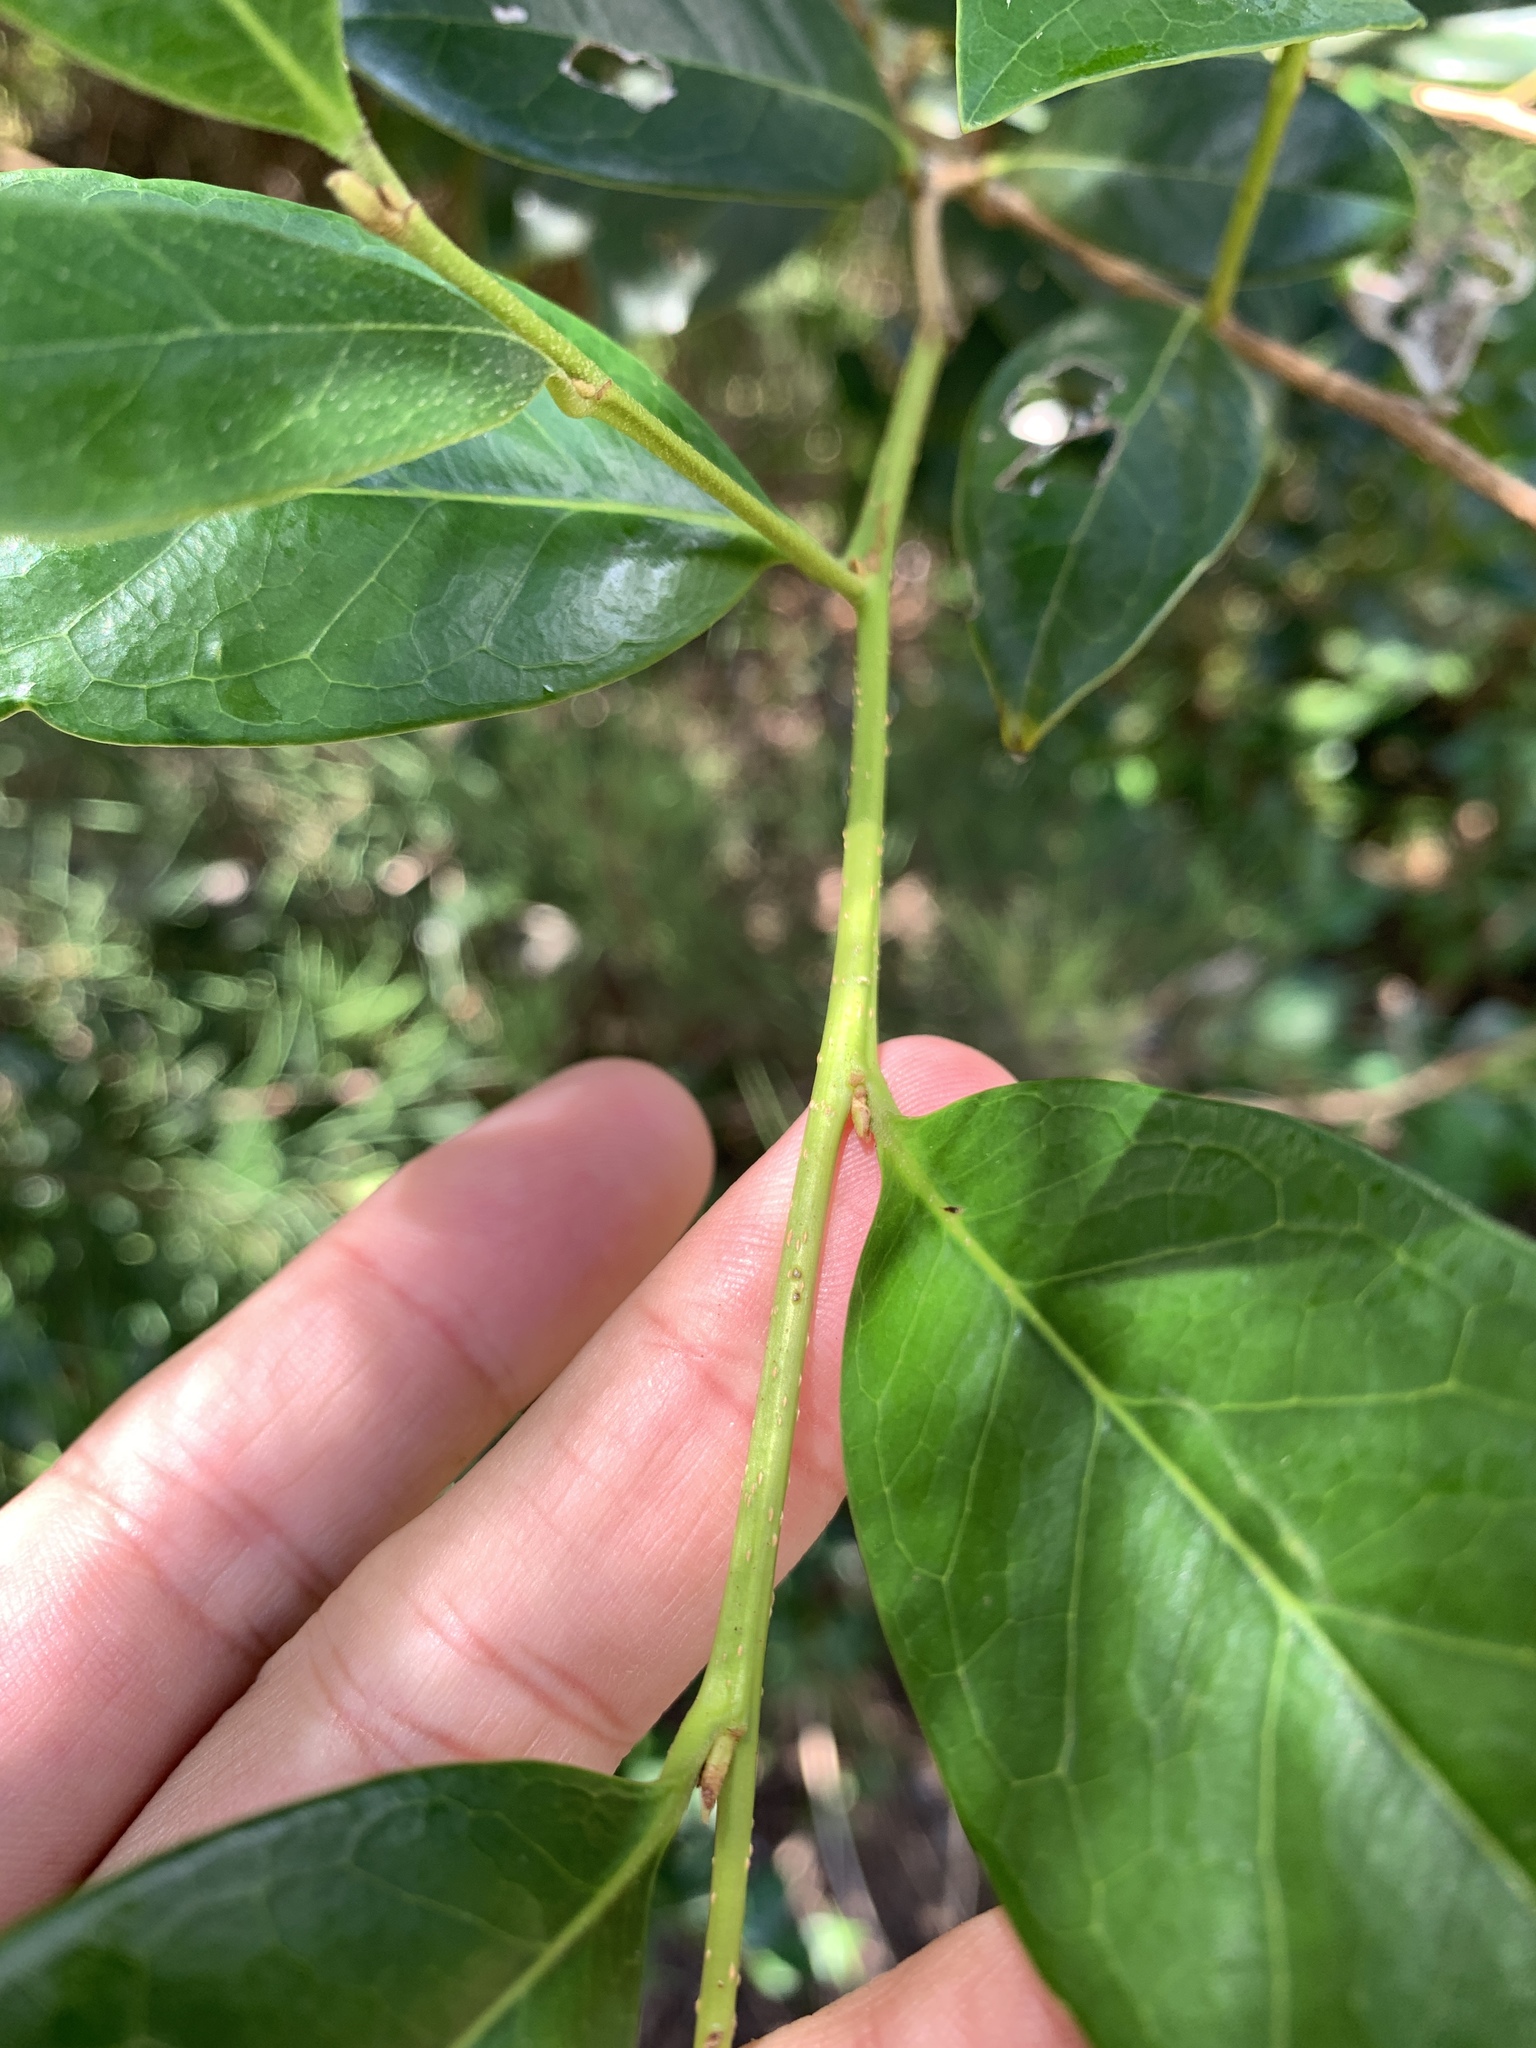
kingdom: Plantae
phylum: Tracheophyta
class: Magnoliopsida
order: Saxifragales
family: Hamamelidaceae
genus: Distylium
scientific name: Distylium racemosum
